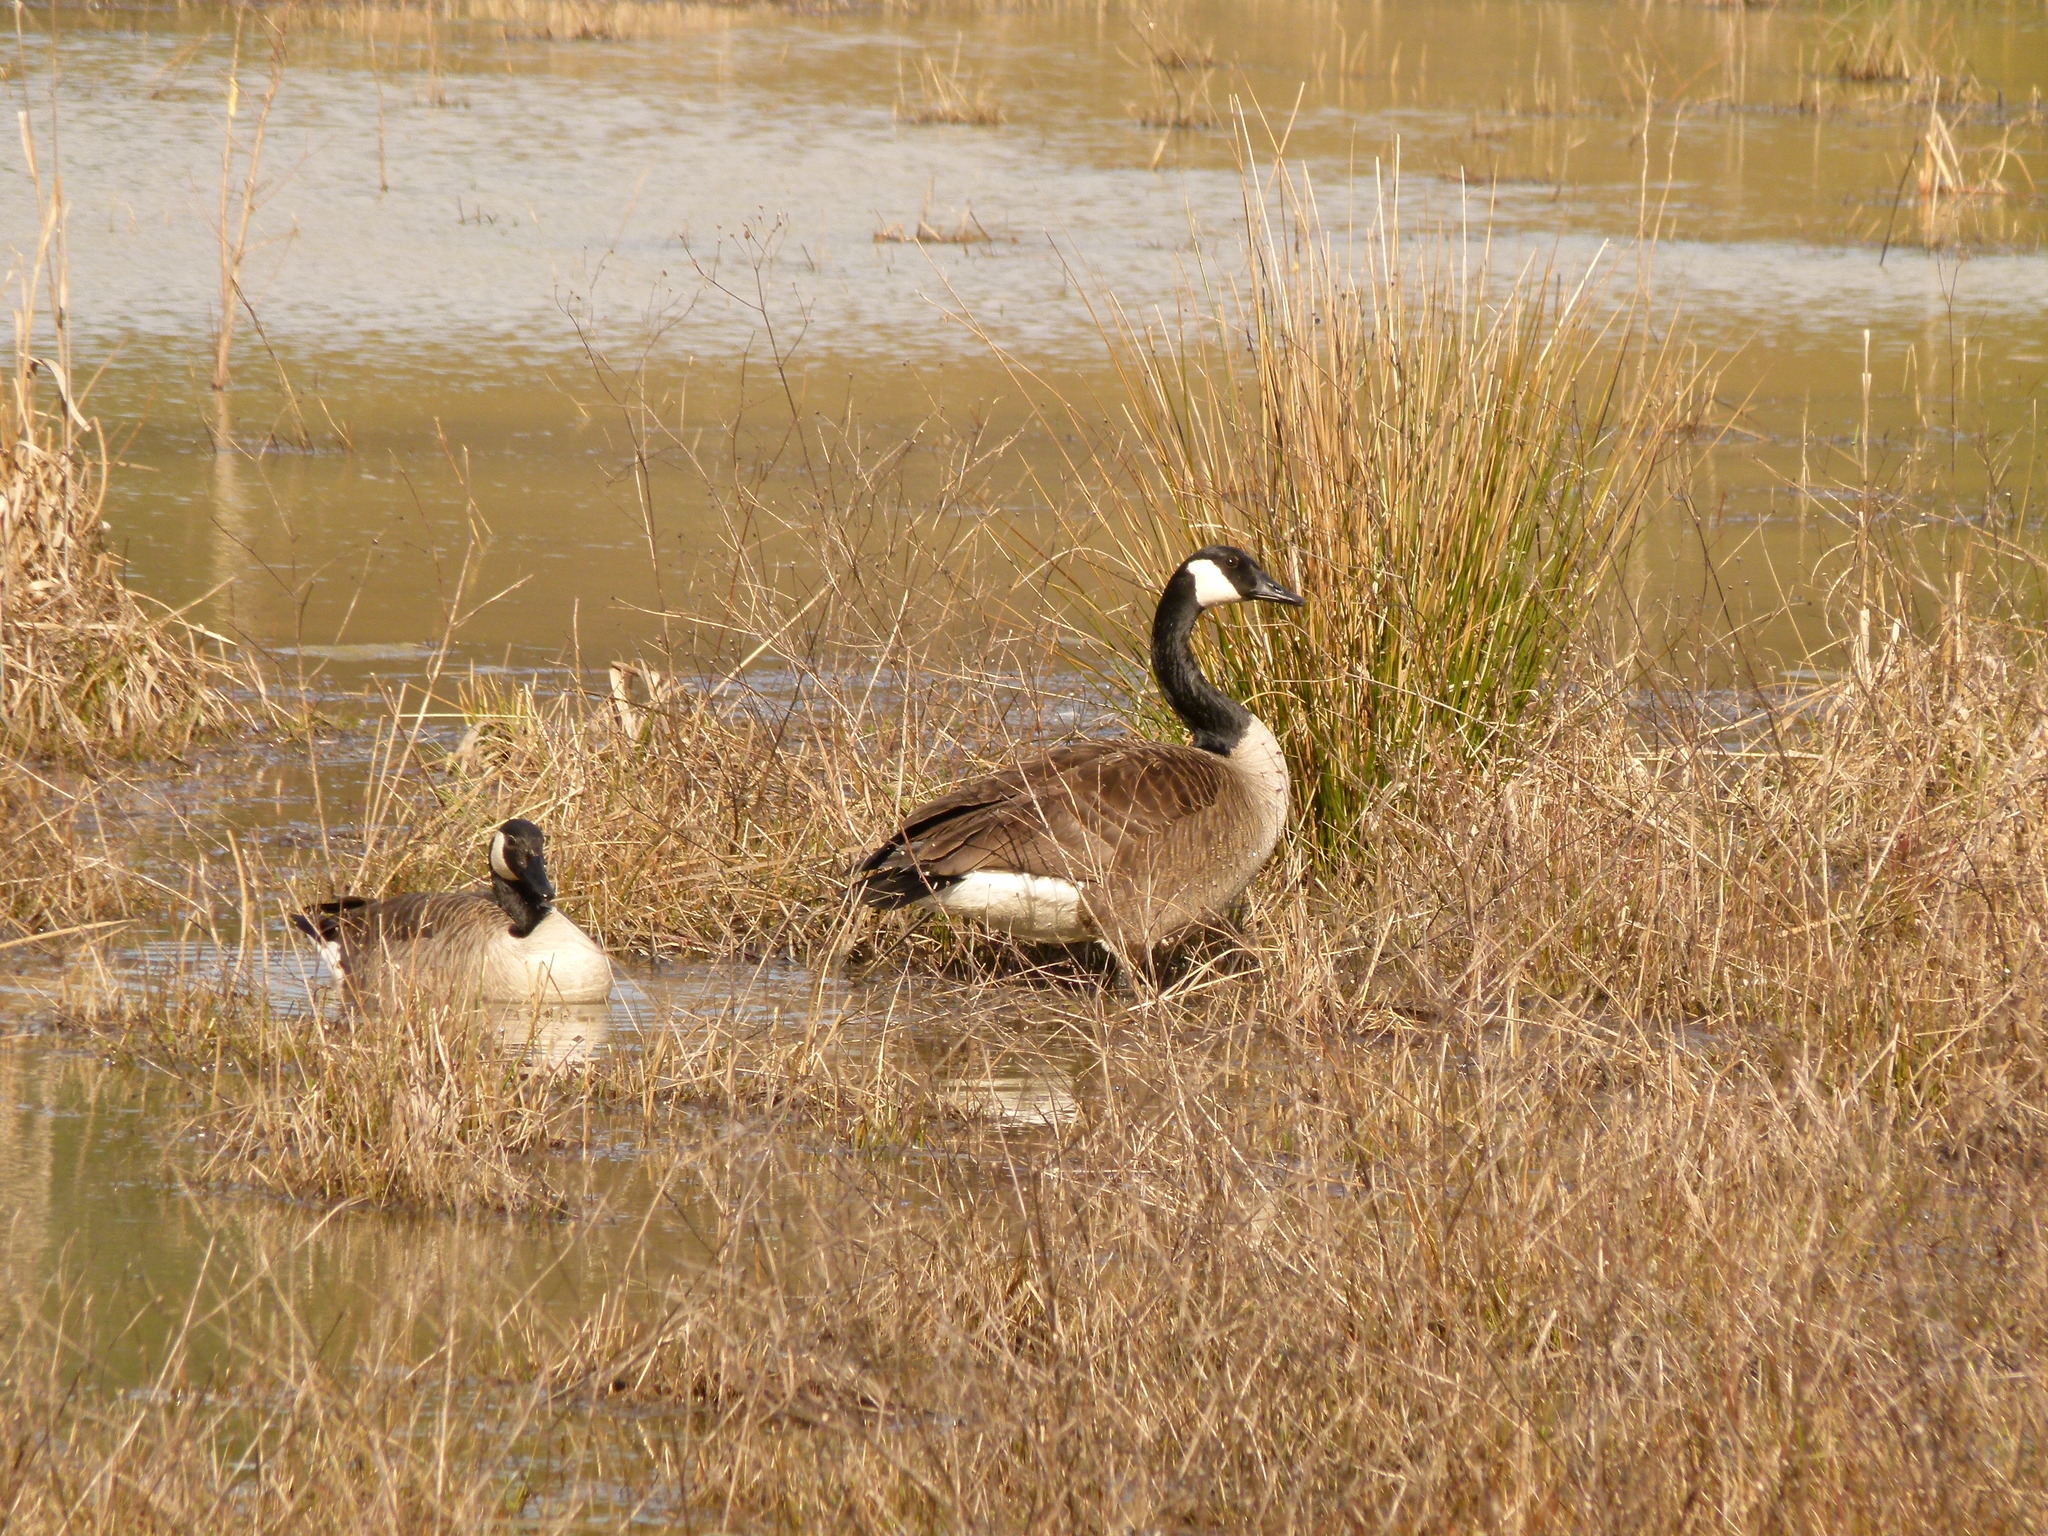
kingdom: Animalia
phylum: Chordata
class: Aves
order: Anseriformes
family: Anatidae
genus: Branta
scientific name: Branta canadensis
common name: Canada goose
